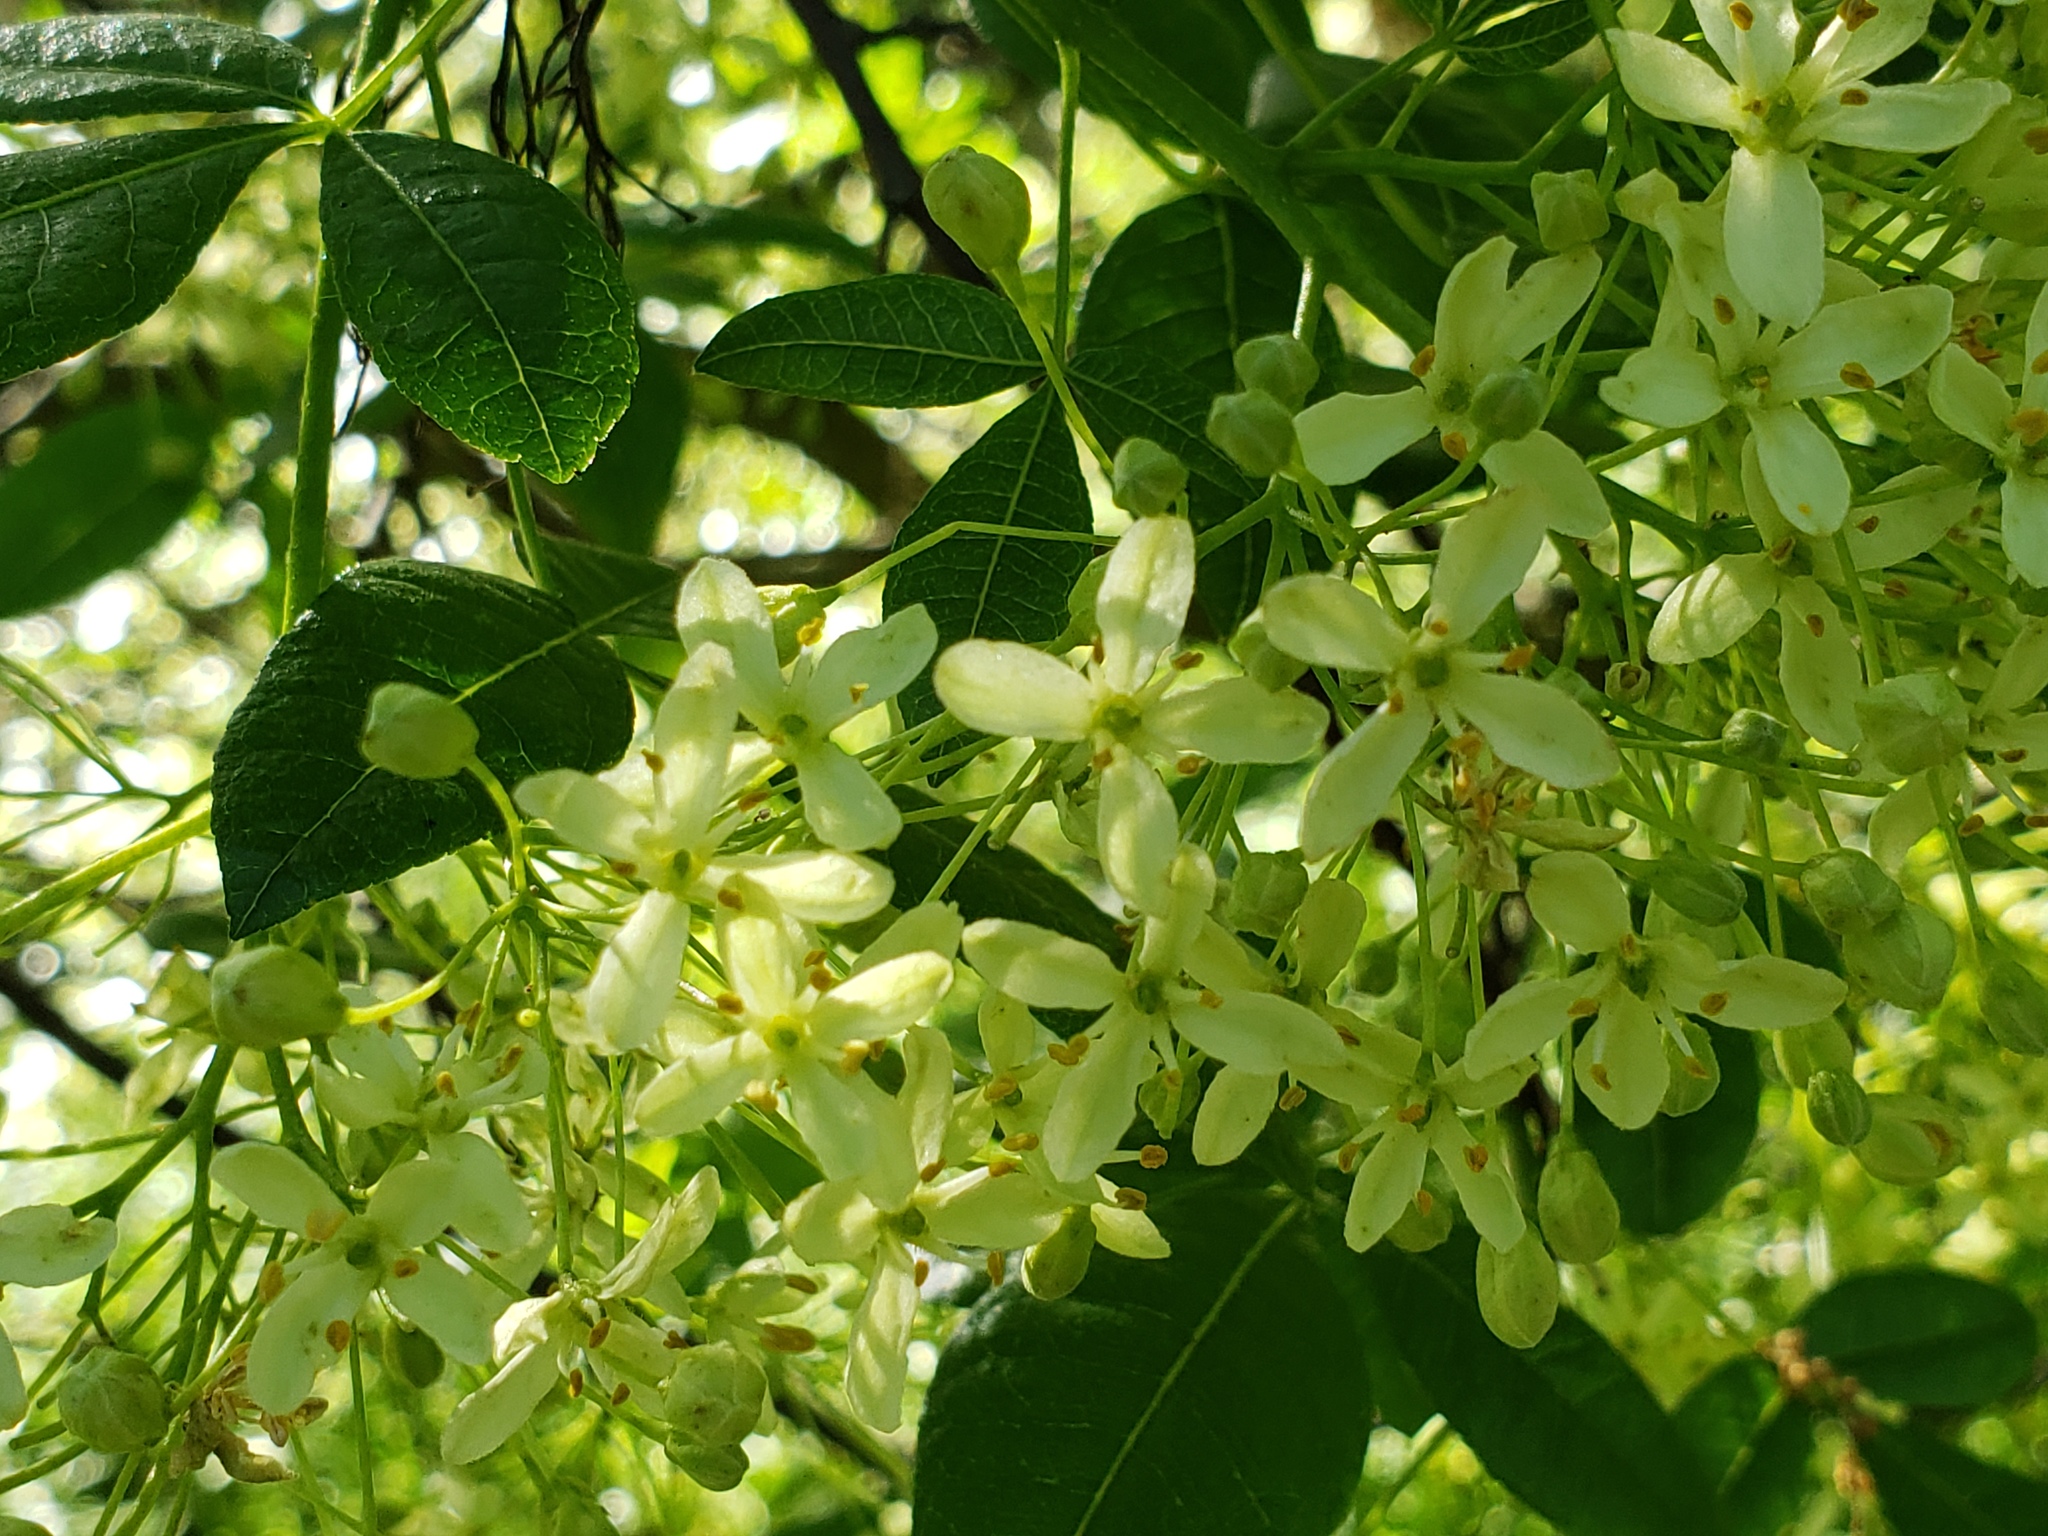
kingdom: Plantae
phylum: Tracheophyta
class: Magnoliopsida
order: Sapindales
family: Rutaceae
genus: Ptelea
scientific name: Ptelea crenulata
